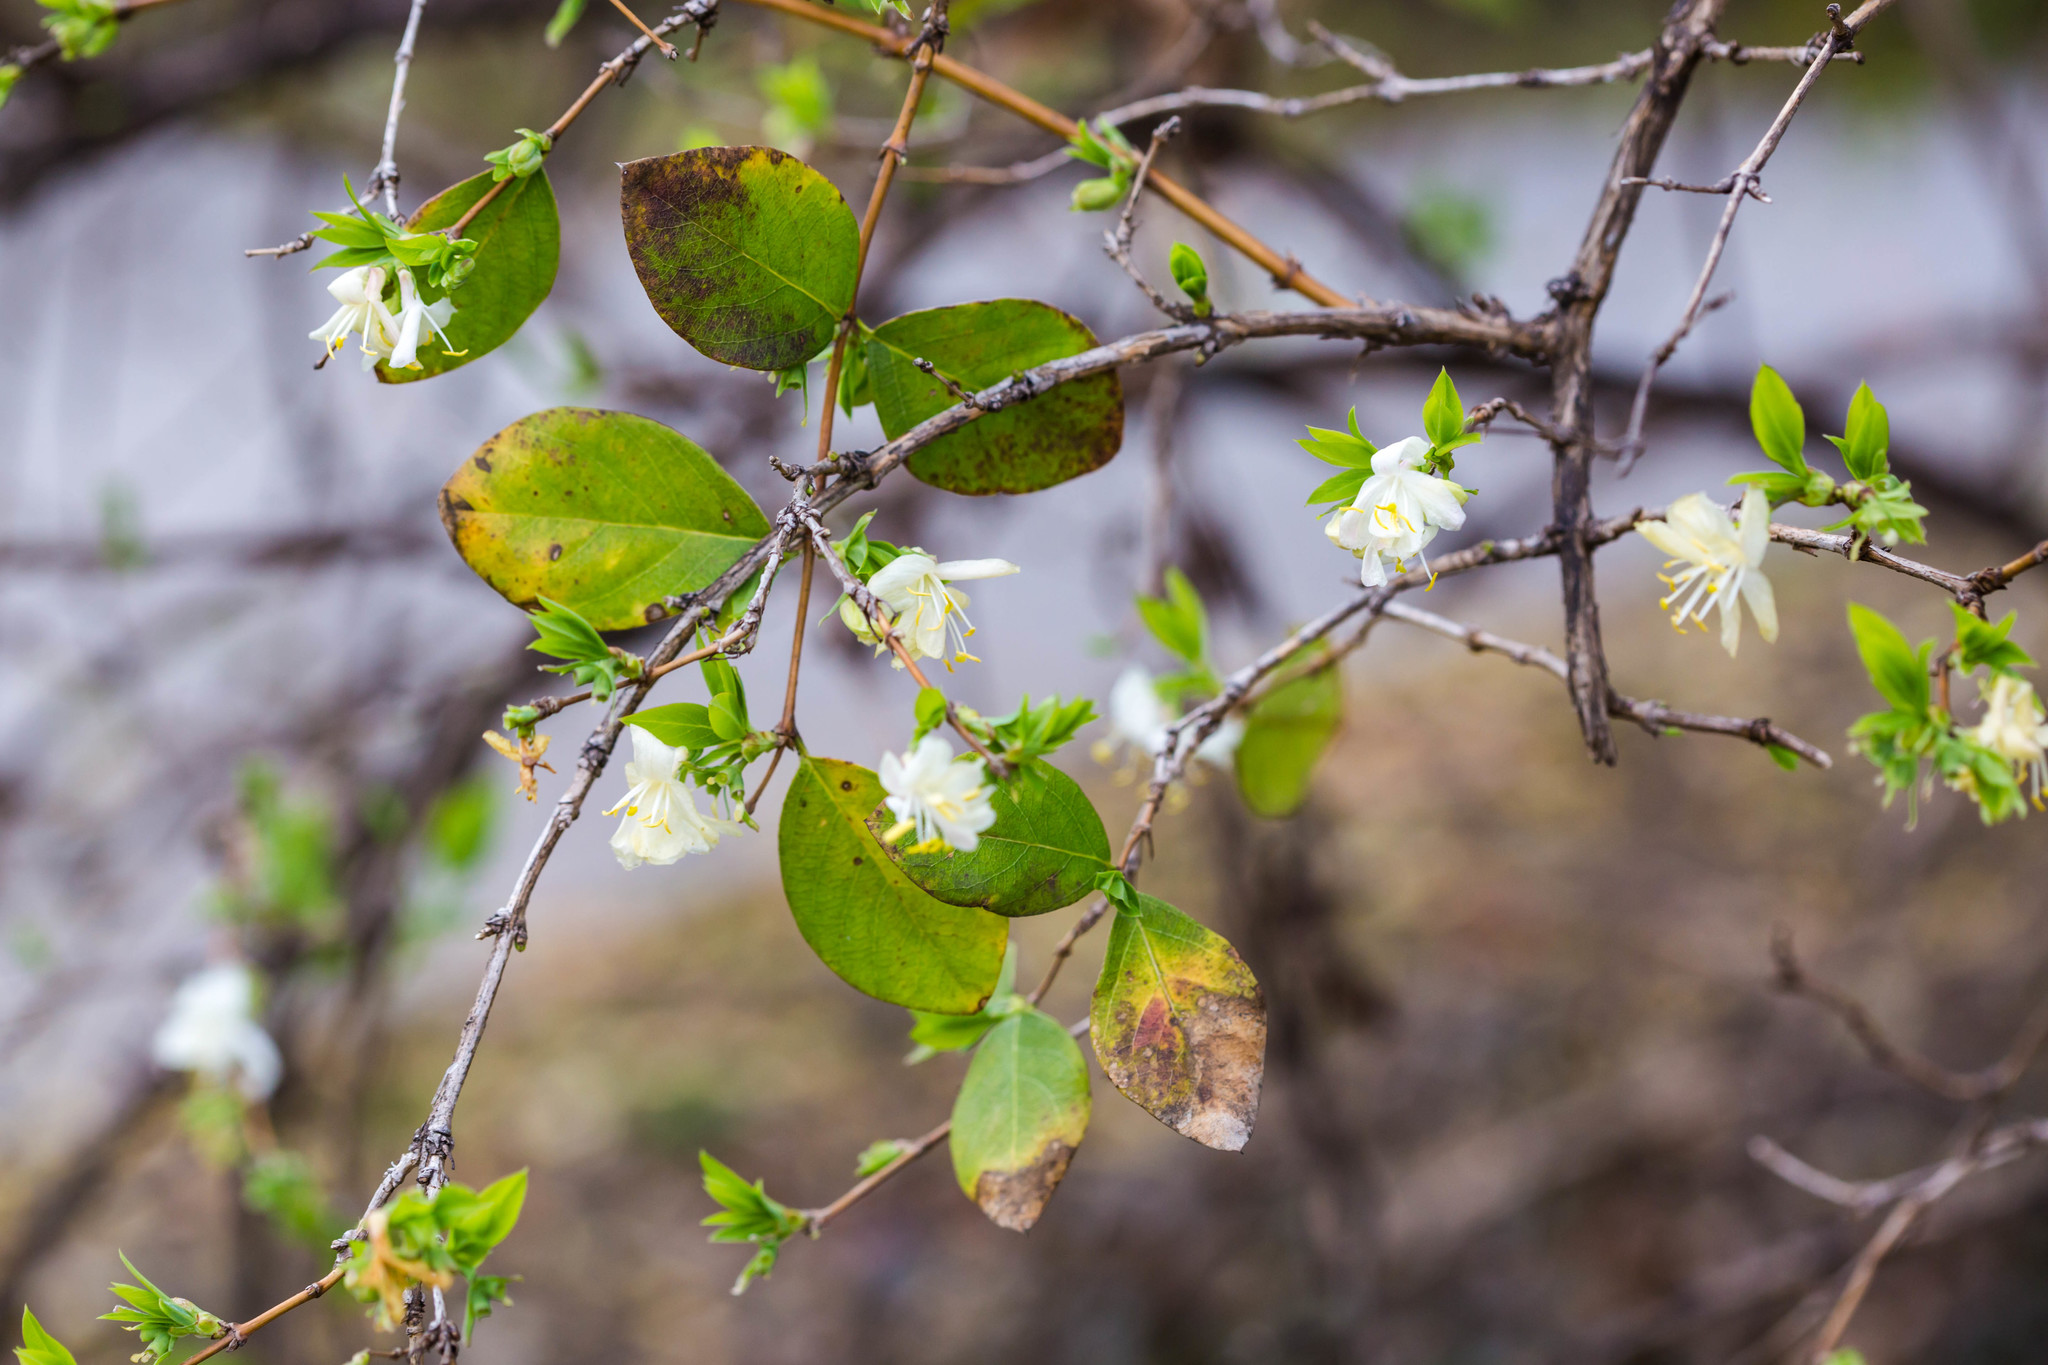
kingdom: Plantae
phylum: Tracheophyta
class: Magnoliopsida
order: Dipsacales
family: Caprifoliaceae
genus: Lonicera
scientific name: Lonicera fragrantissima
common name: Fragrant honeysuckle
